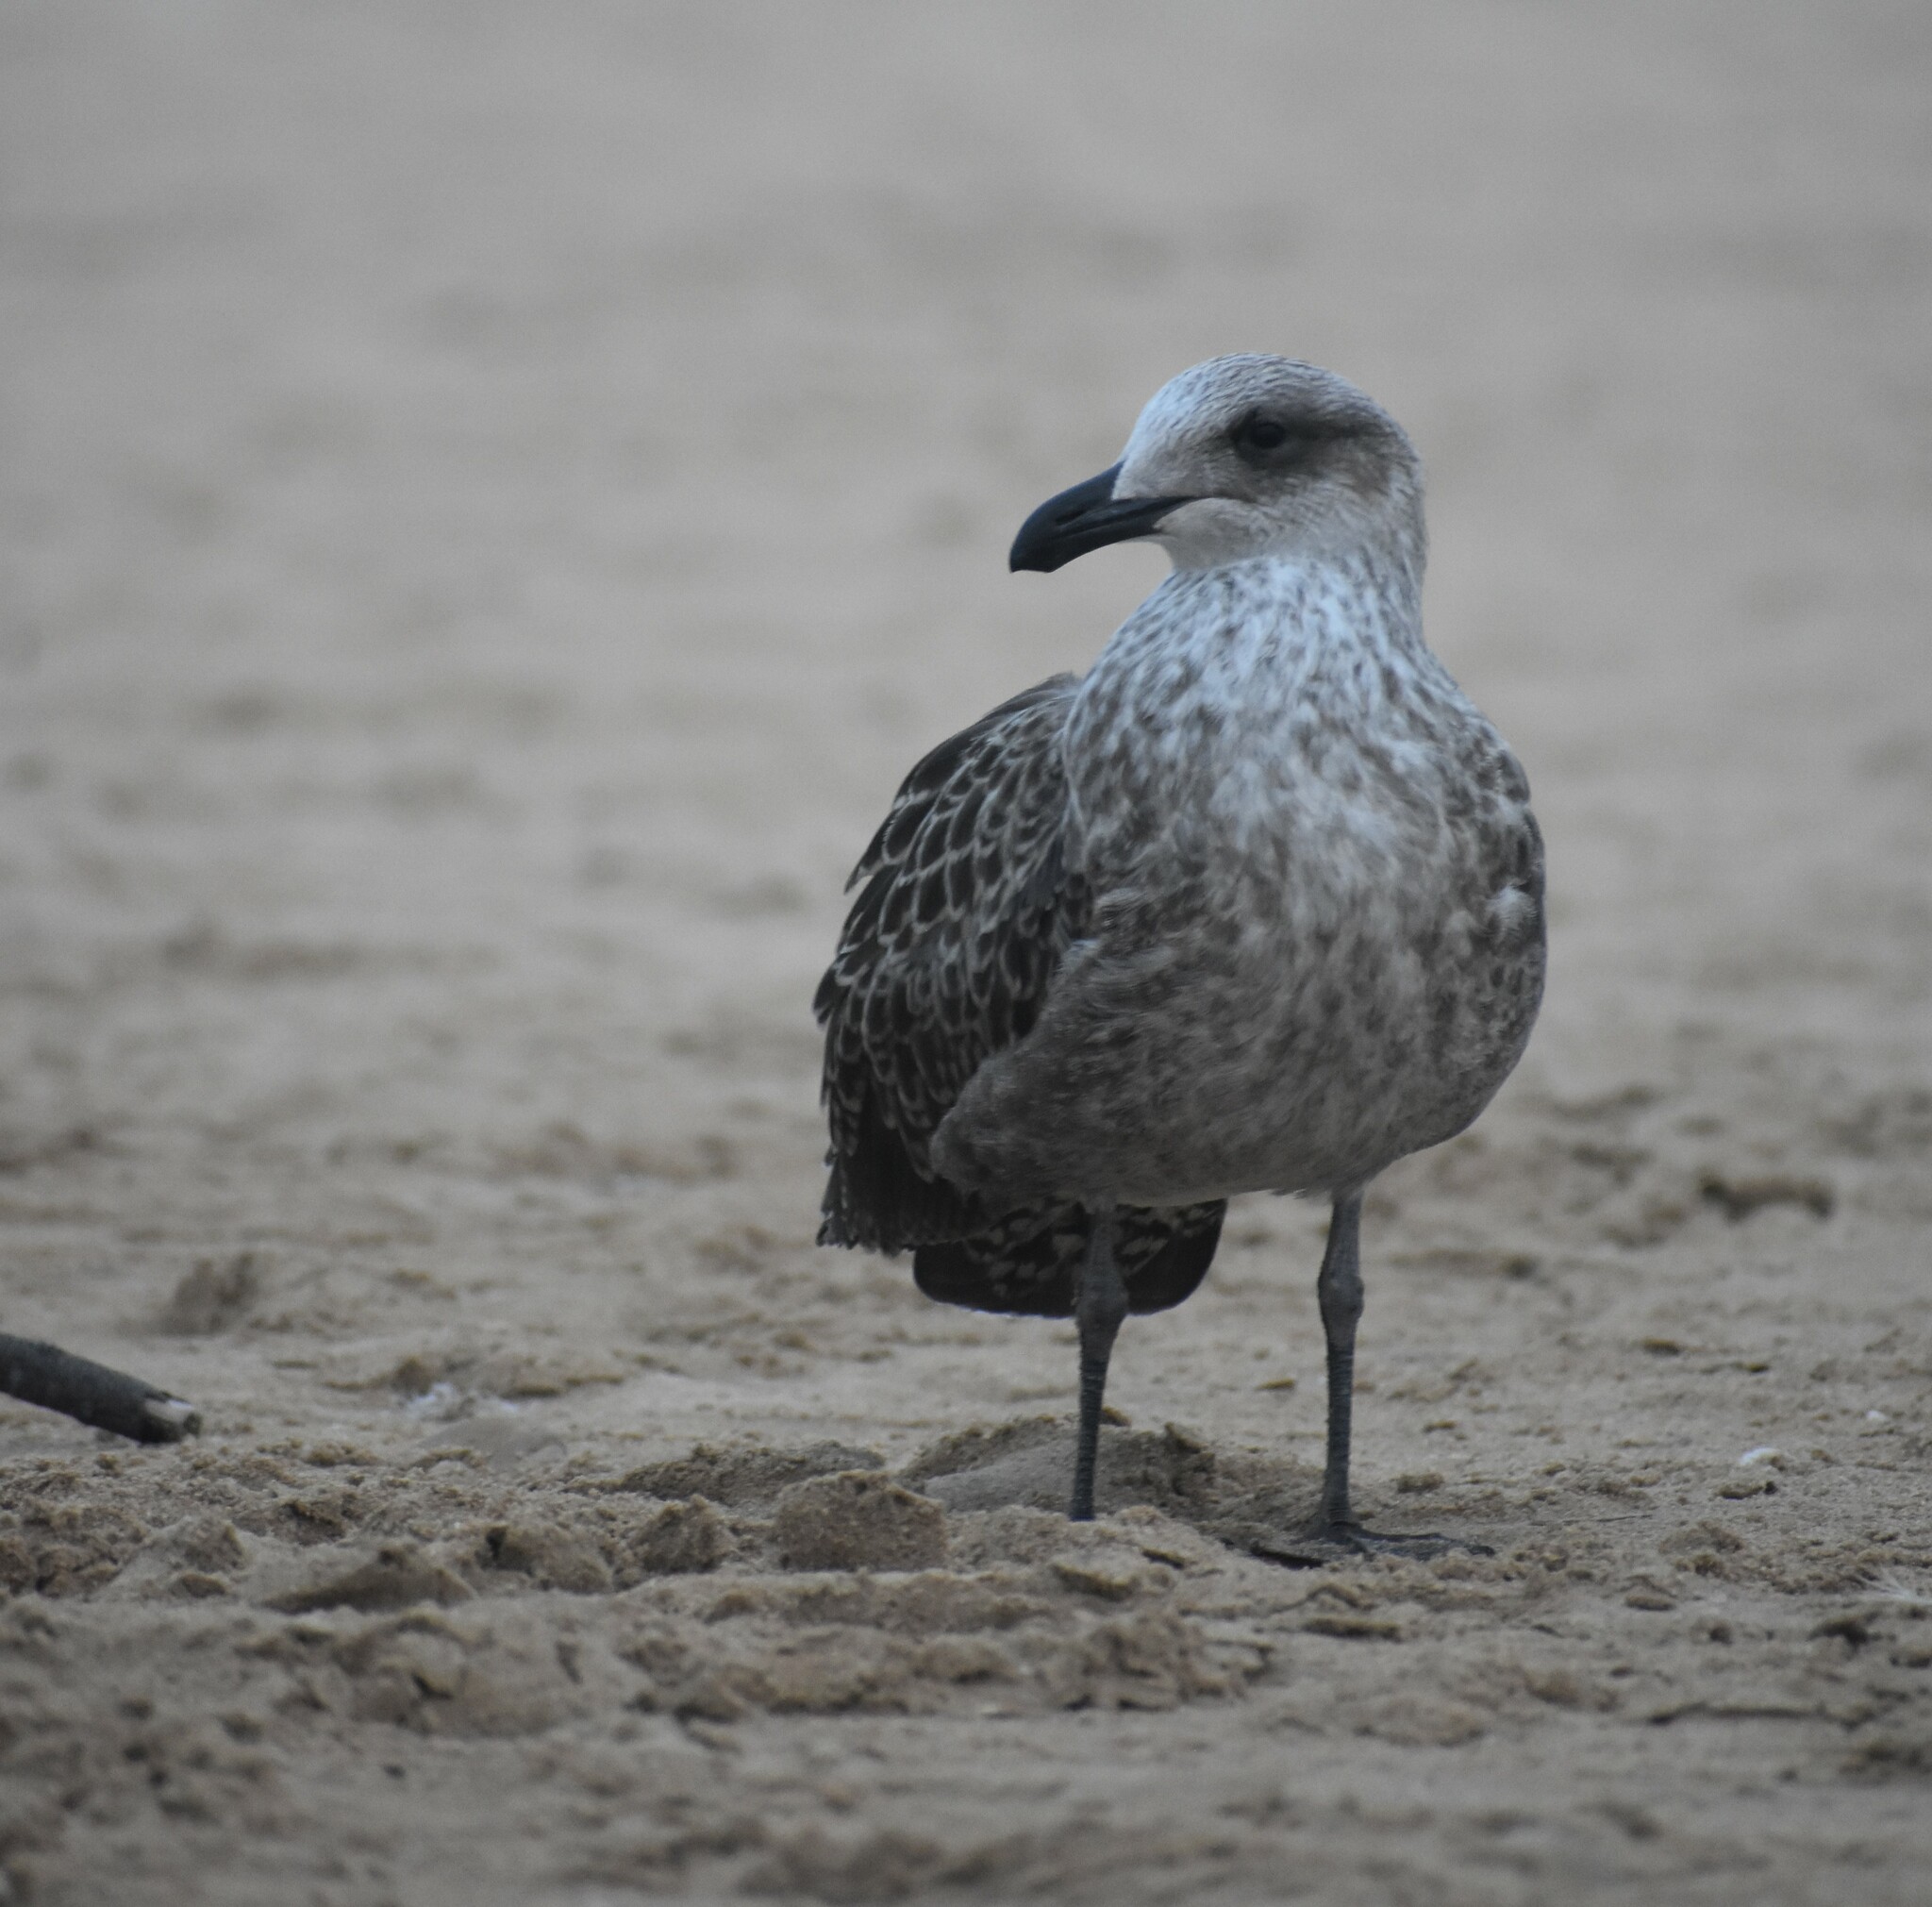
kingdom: Animalia
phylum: Chordata
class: Aves
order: Charadriiformes
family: Laridae
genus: Larus
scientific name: Larus dominicanus
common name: Kelp gull
